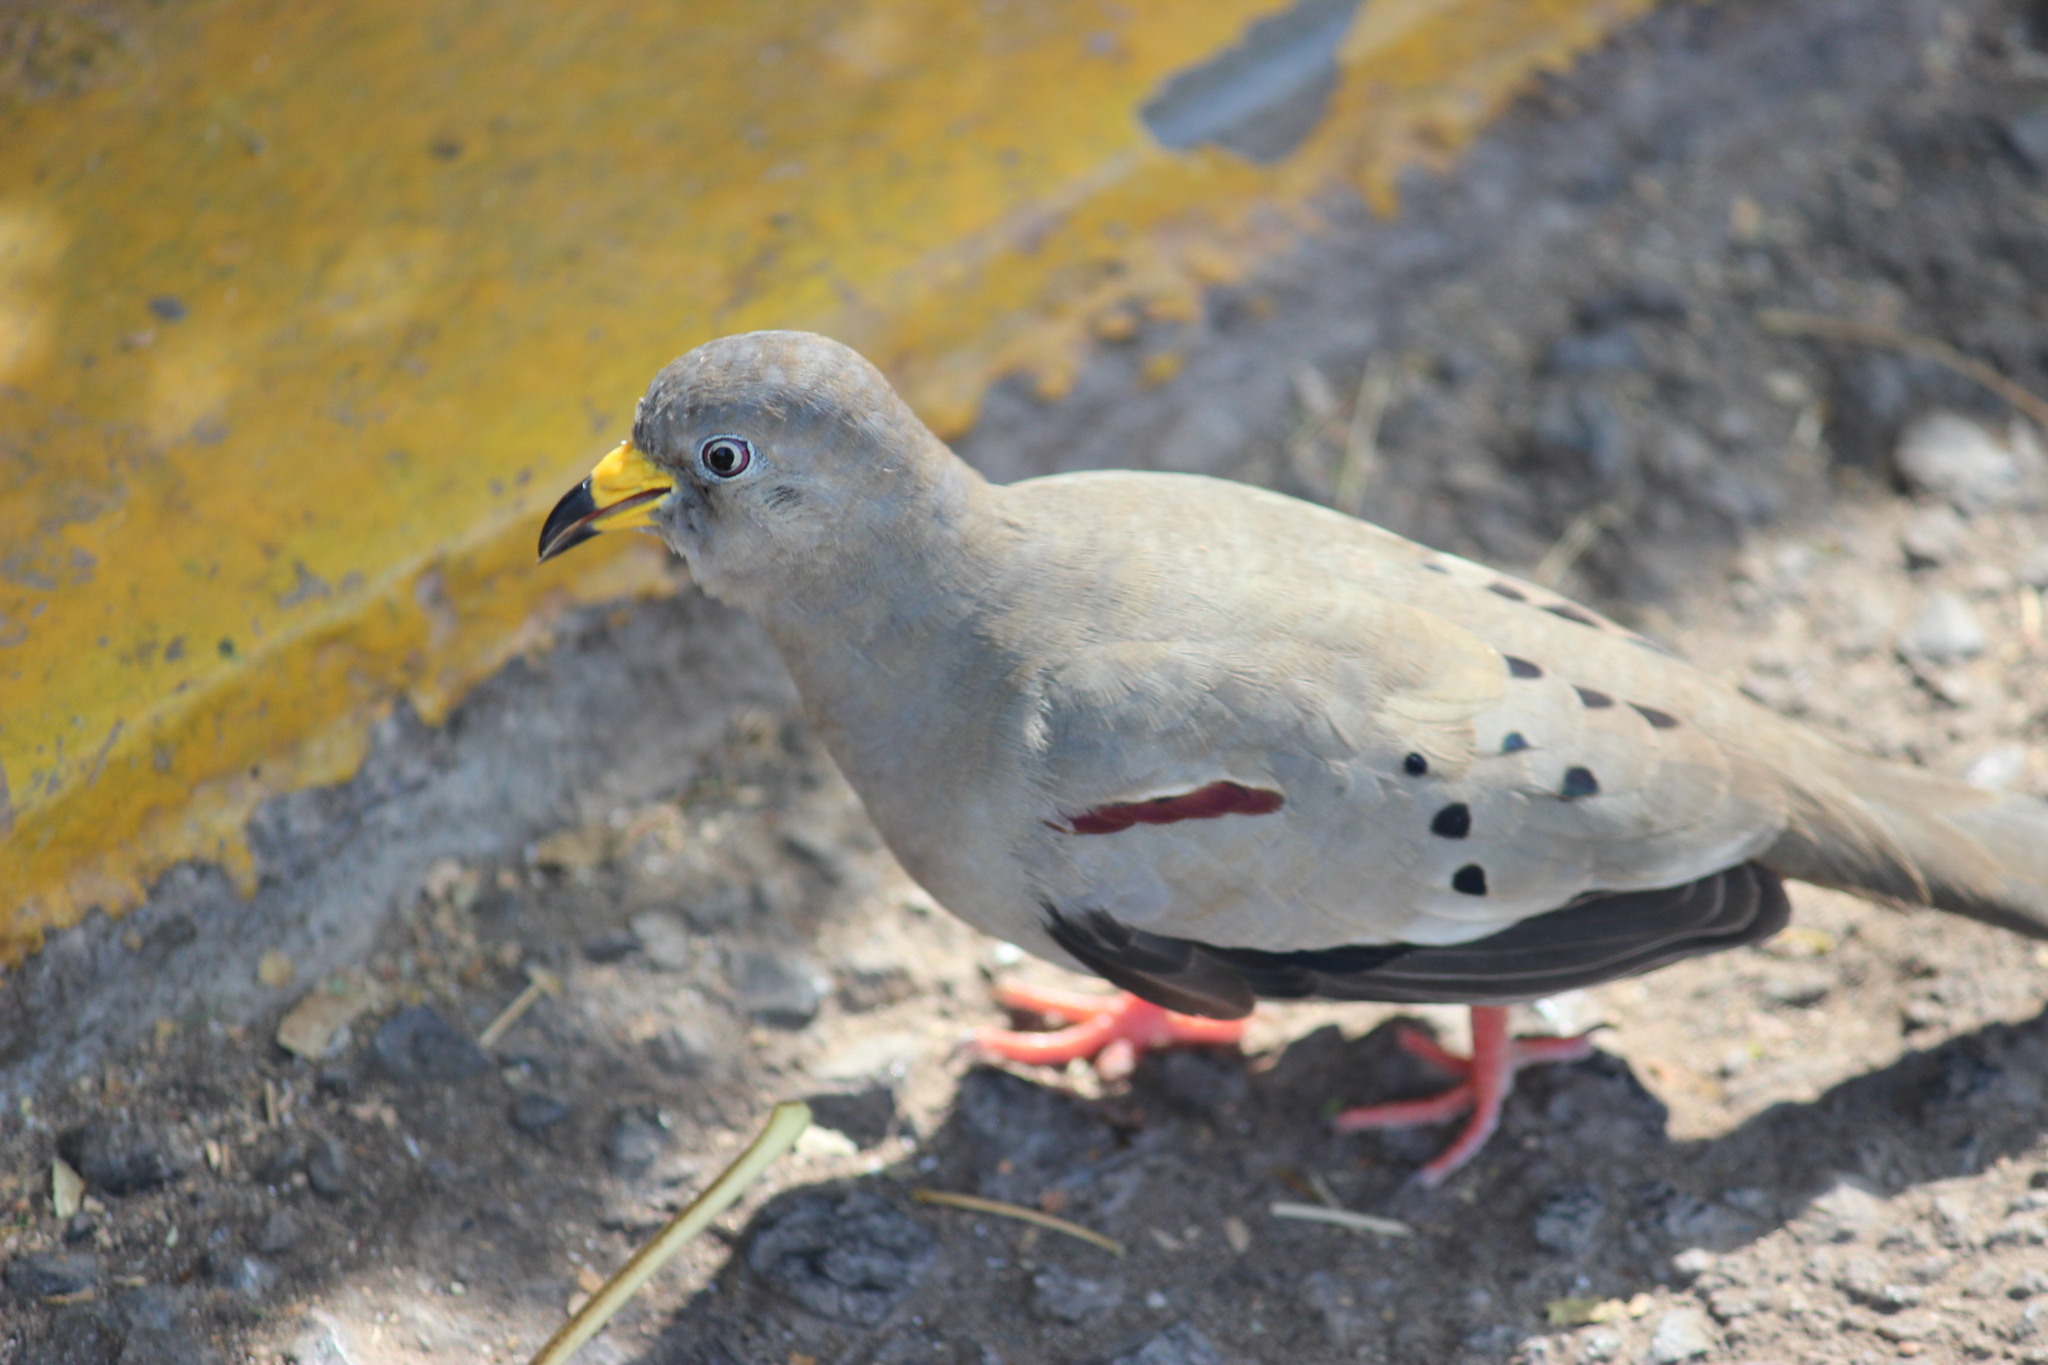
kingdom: Animalia
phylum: Chordata
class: Aves
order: Columbiformes
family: Columbidae
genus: Columbina
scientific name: Columbina cruziana
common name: Croaking ground dove
